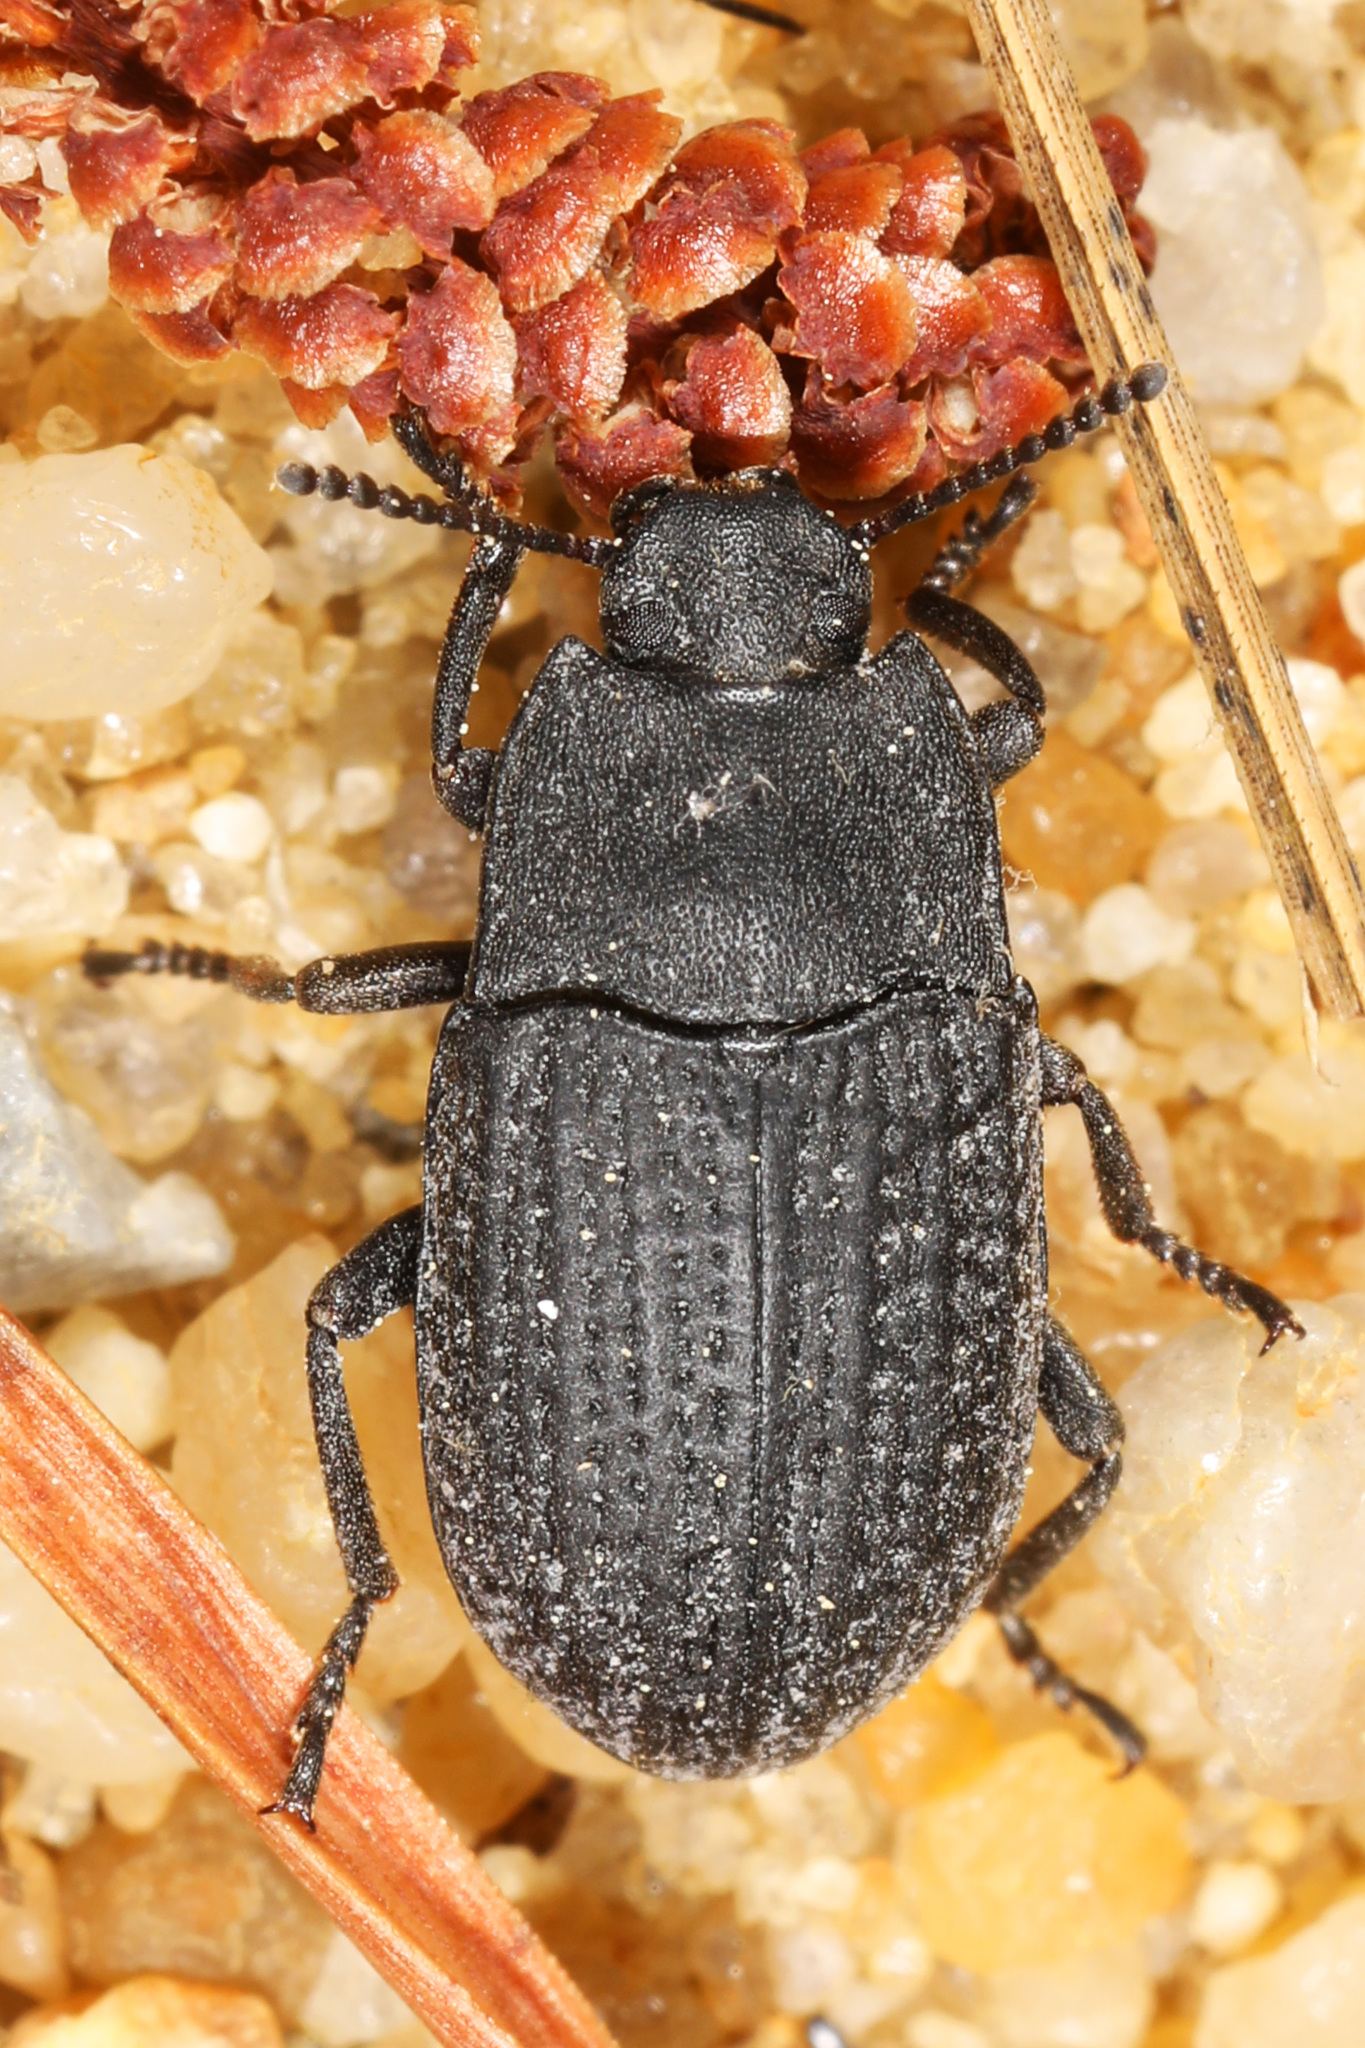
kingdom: Animalia
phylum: Arthropoda
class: Insecta
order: Coleoptera
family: Tenebrionidae
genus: Asiopus
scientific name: Asiopus
